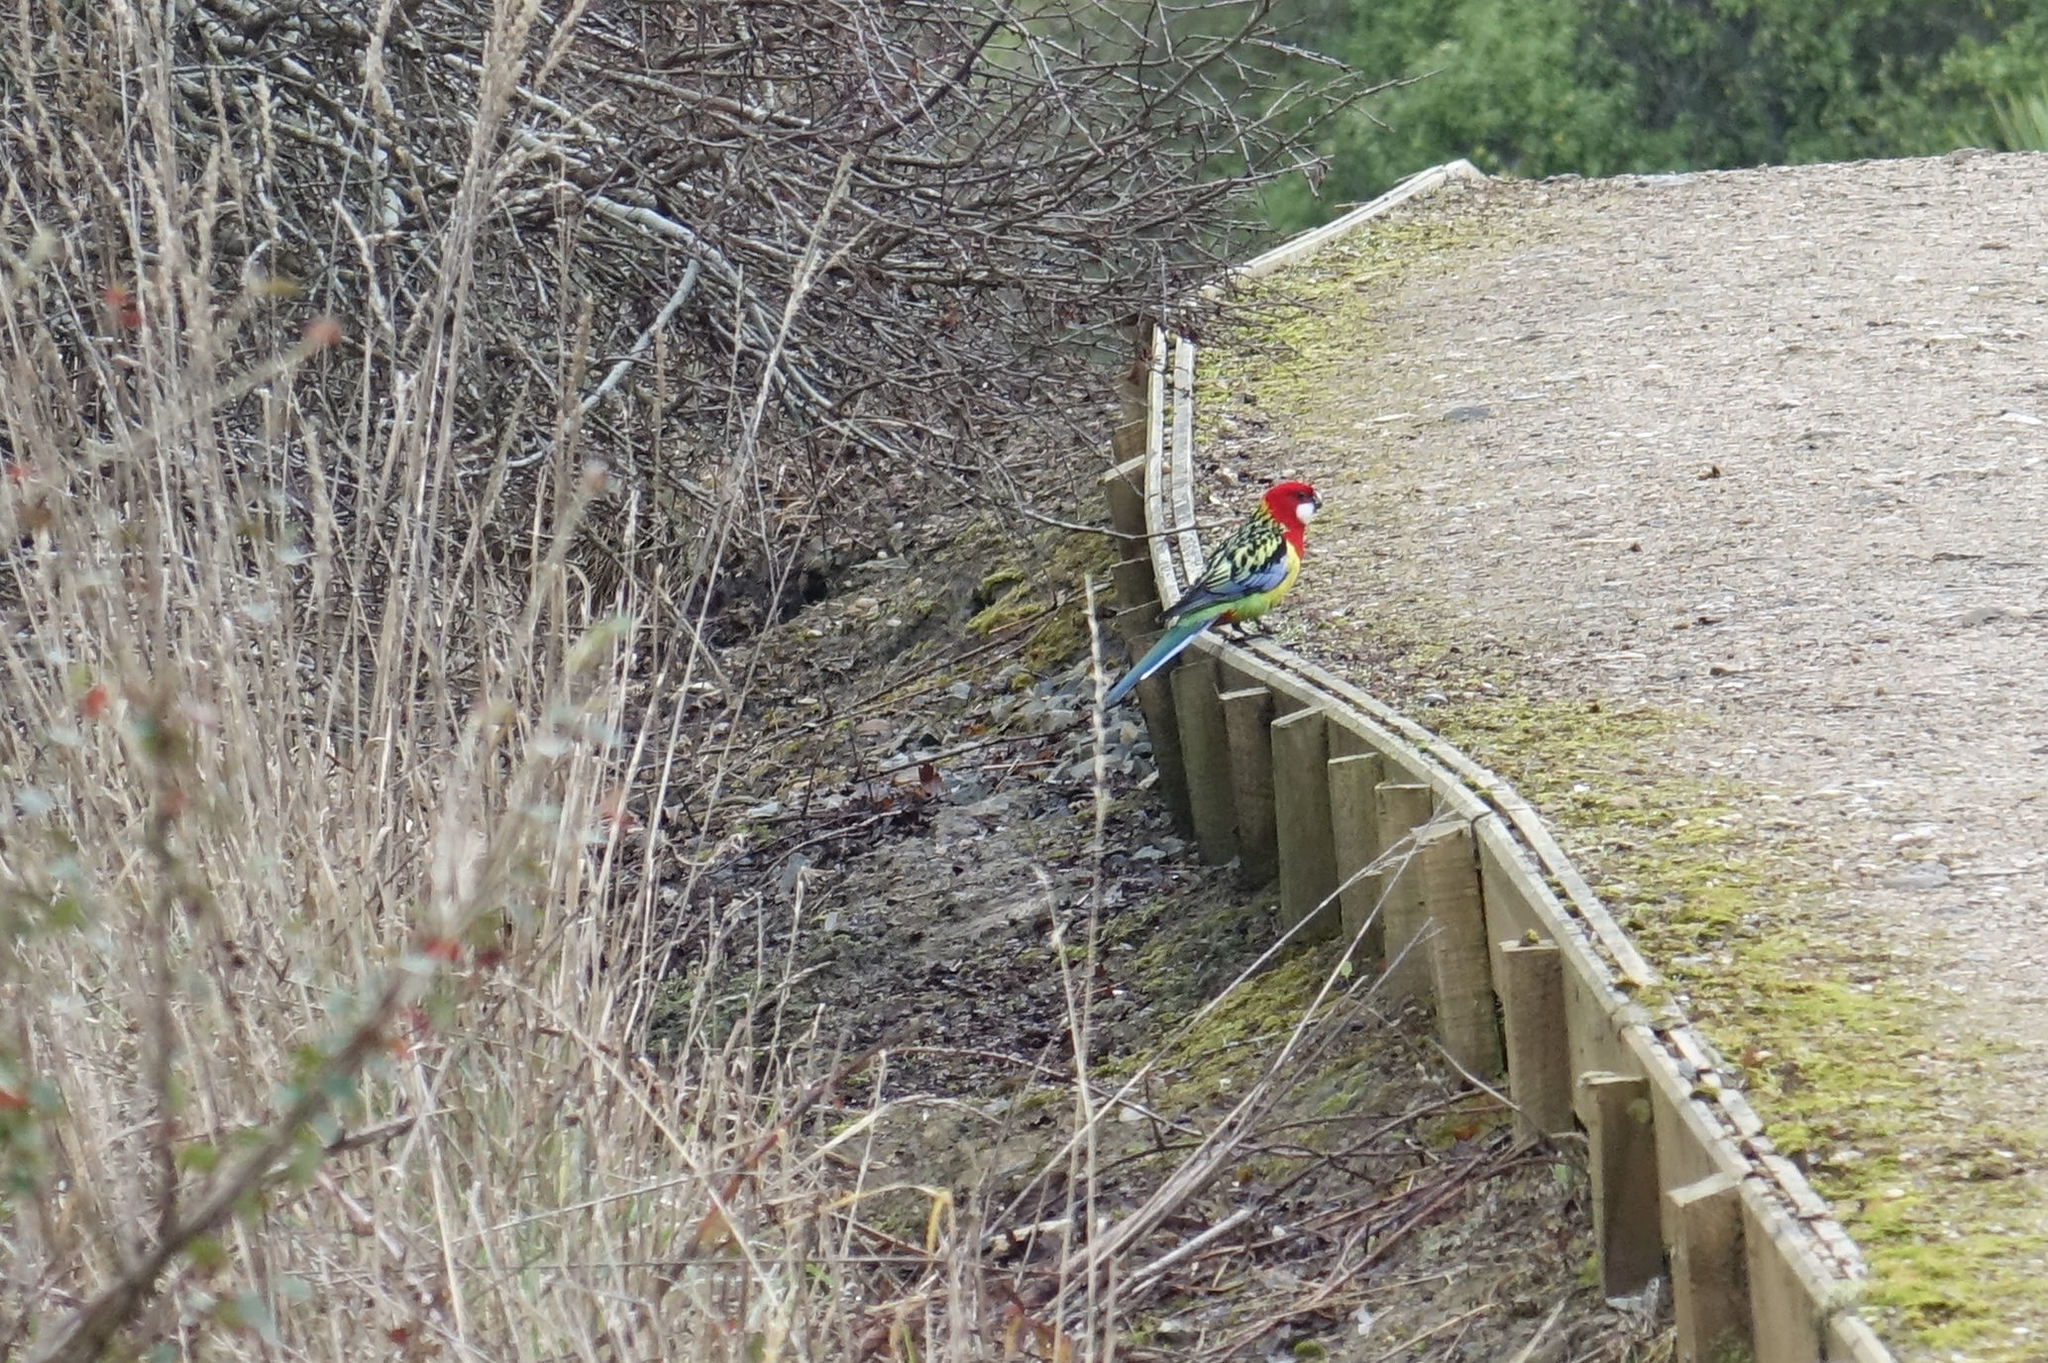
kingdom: Animalia
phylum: Chordata
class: Aves
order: Psittaciformes
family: Psittacidae
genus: Platycercus
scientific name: Platycercus eximius
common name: Eastern rosella
